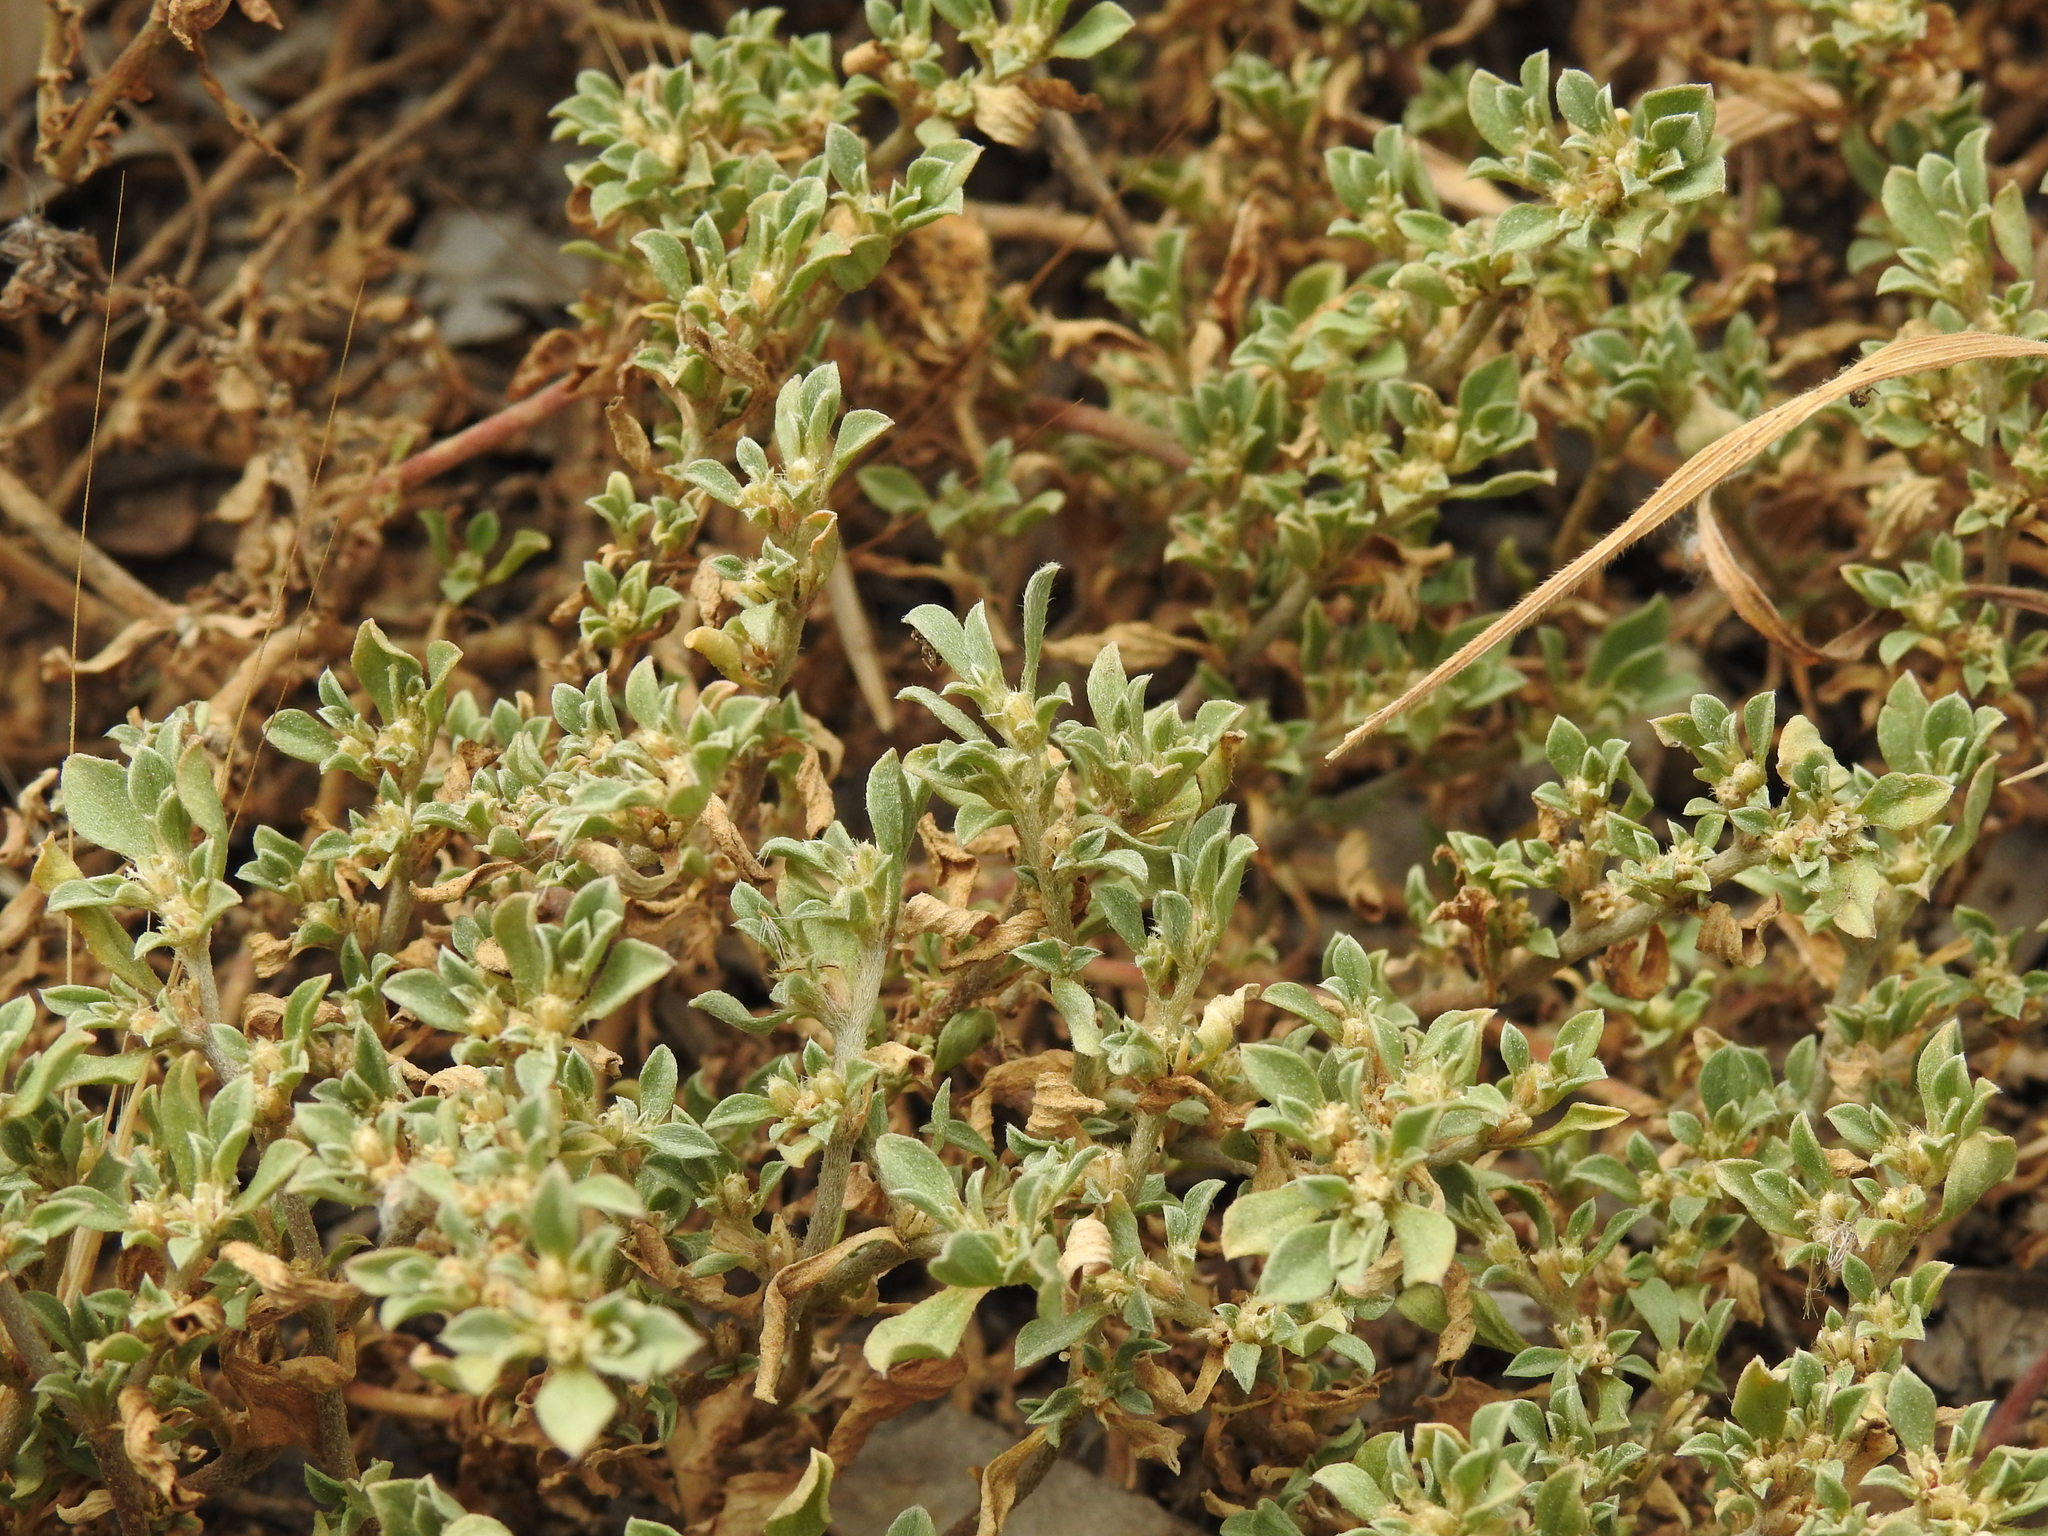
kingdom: Plantae
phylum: Tracheophyta
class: Magnoliopsida
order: Caryophyllales
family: Aizoaceae
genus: Aizoon
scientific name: Aizoon pubescens
